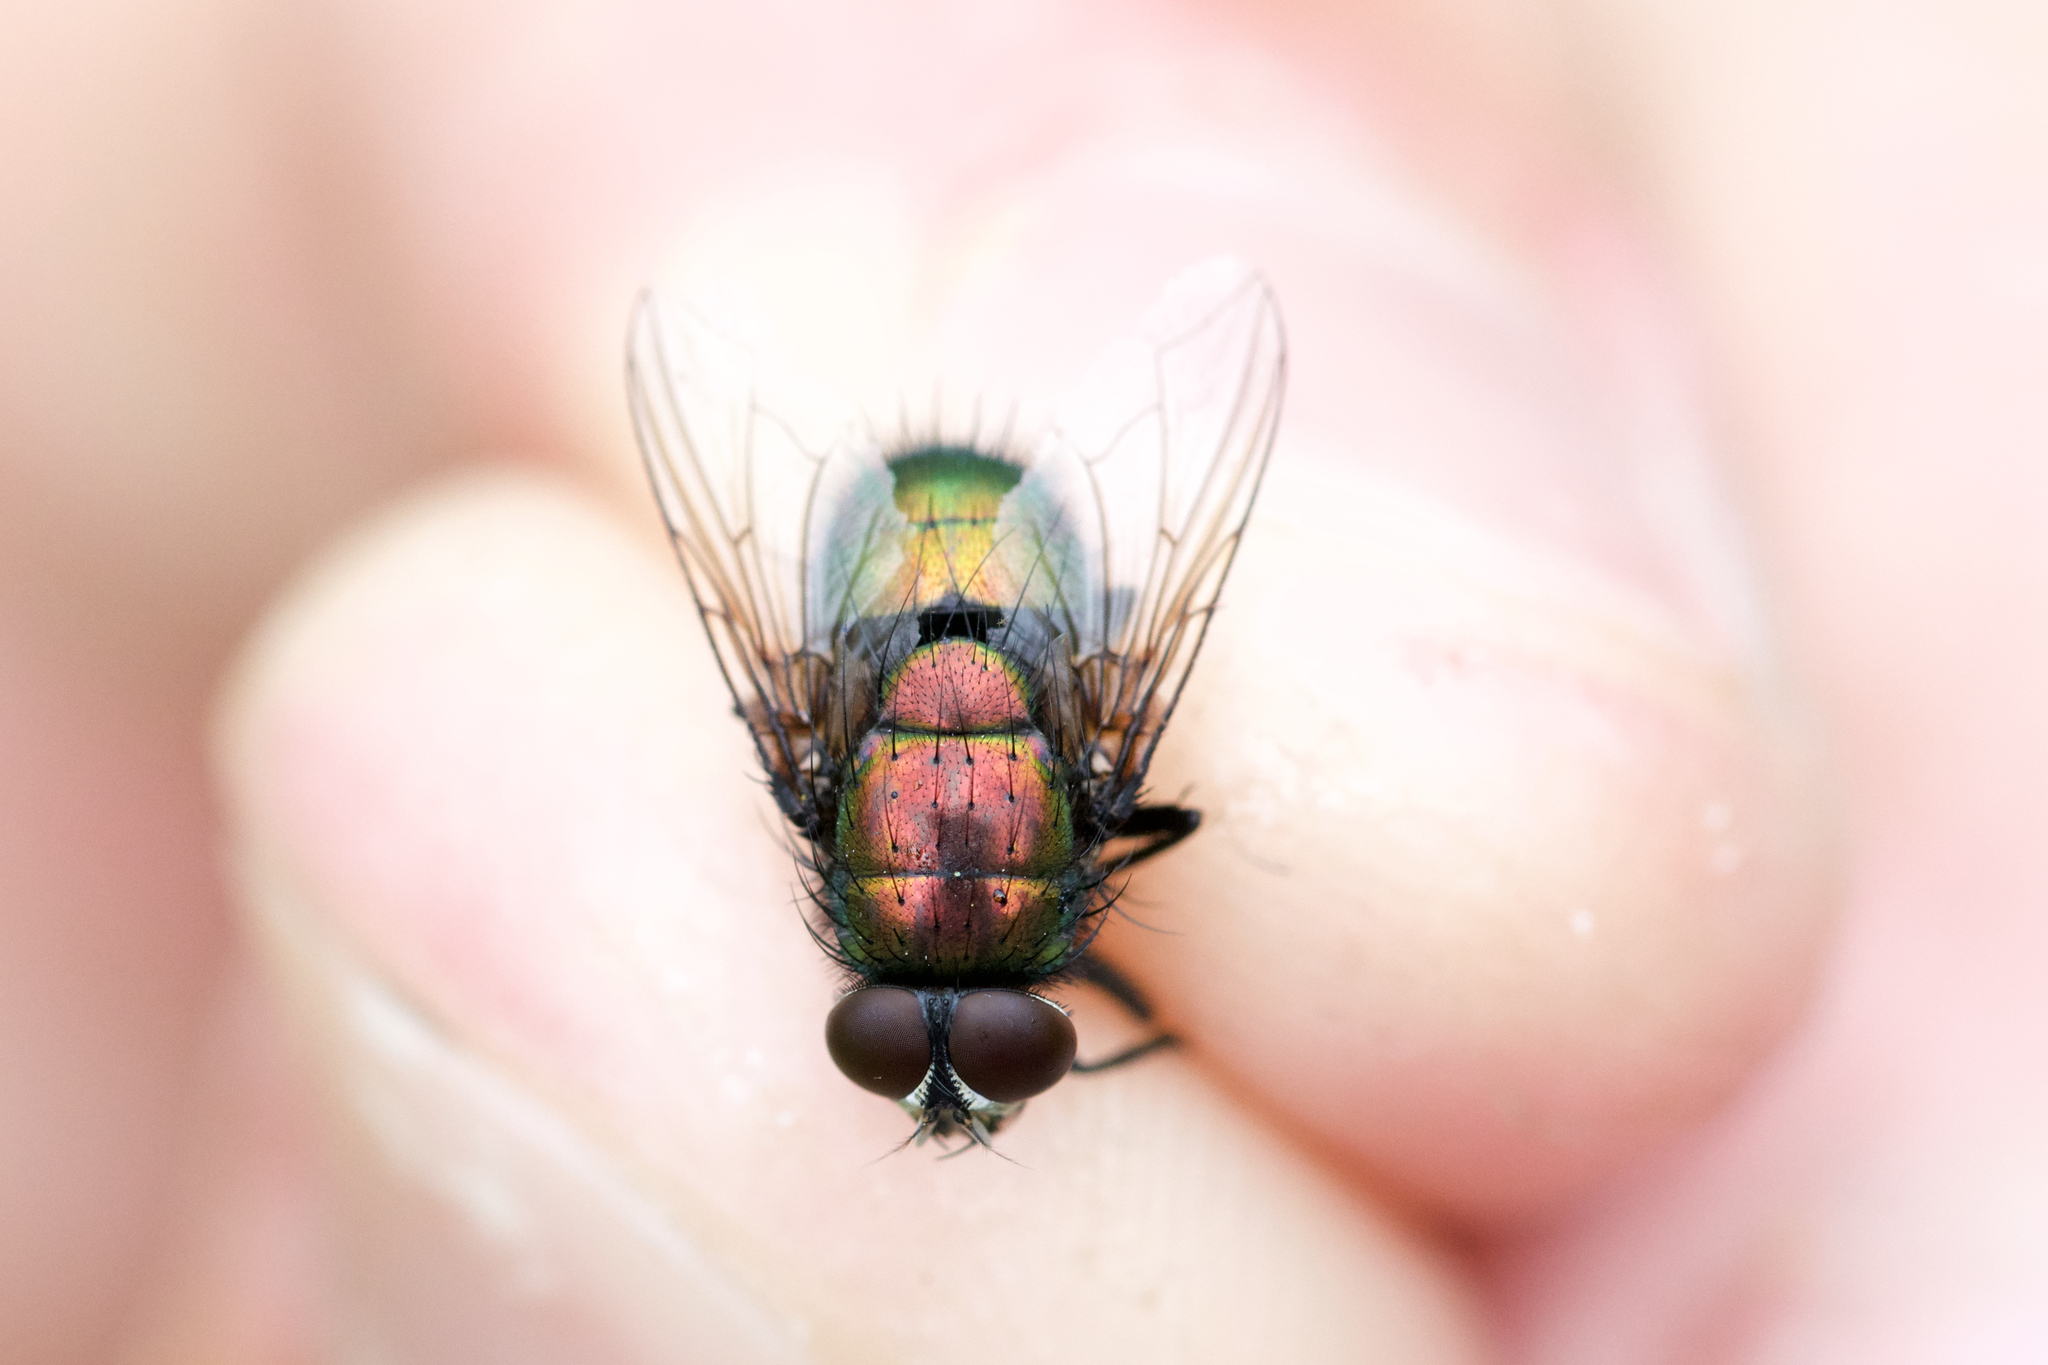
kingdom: Animalia
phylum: Arthropoda
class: Insecta
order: Diptera
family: Calliphoridae
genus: Lucilia
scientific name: Lucilia silvarum
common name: Marsh greenbottle
